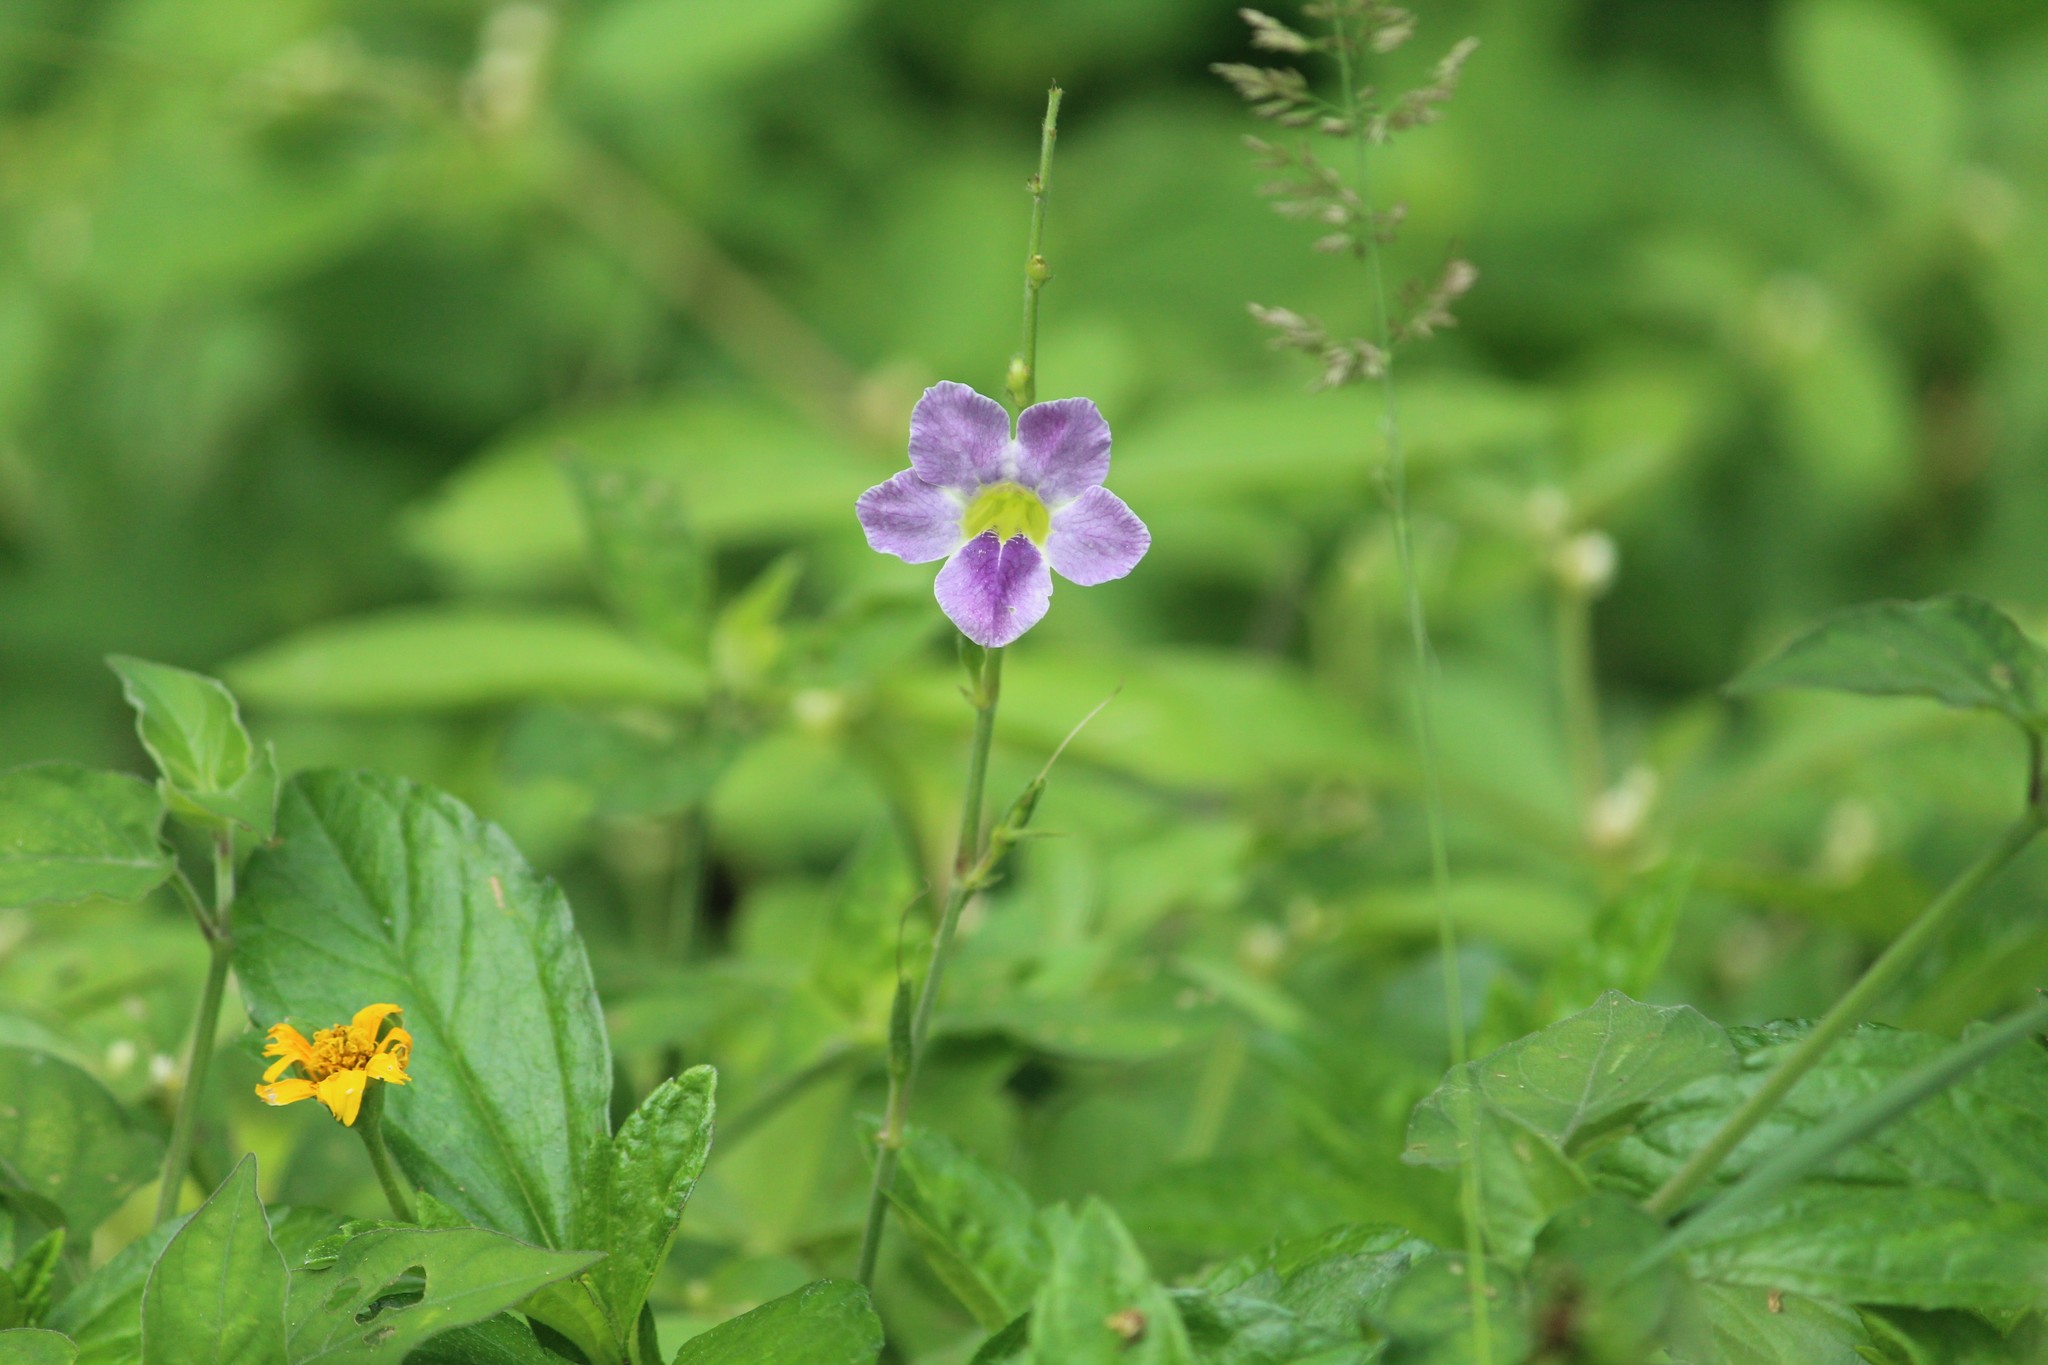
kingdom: Plantae
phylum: Tracheophyta
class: Magnoliopsida
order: Lamiales
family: Acanthaceae
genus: Asystasia
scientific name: Asystasia gangetica
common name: Chinese violet
